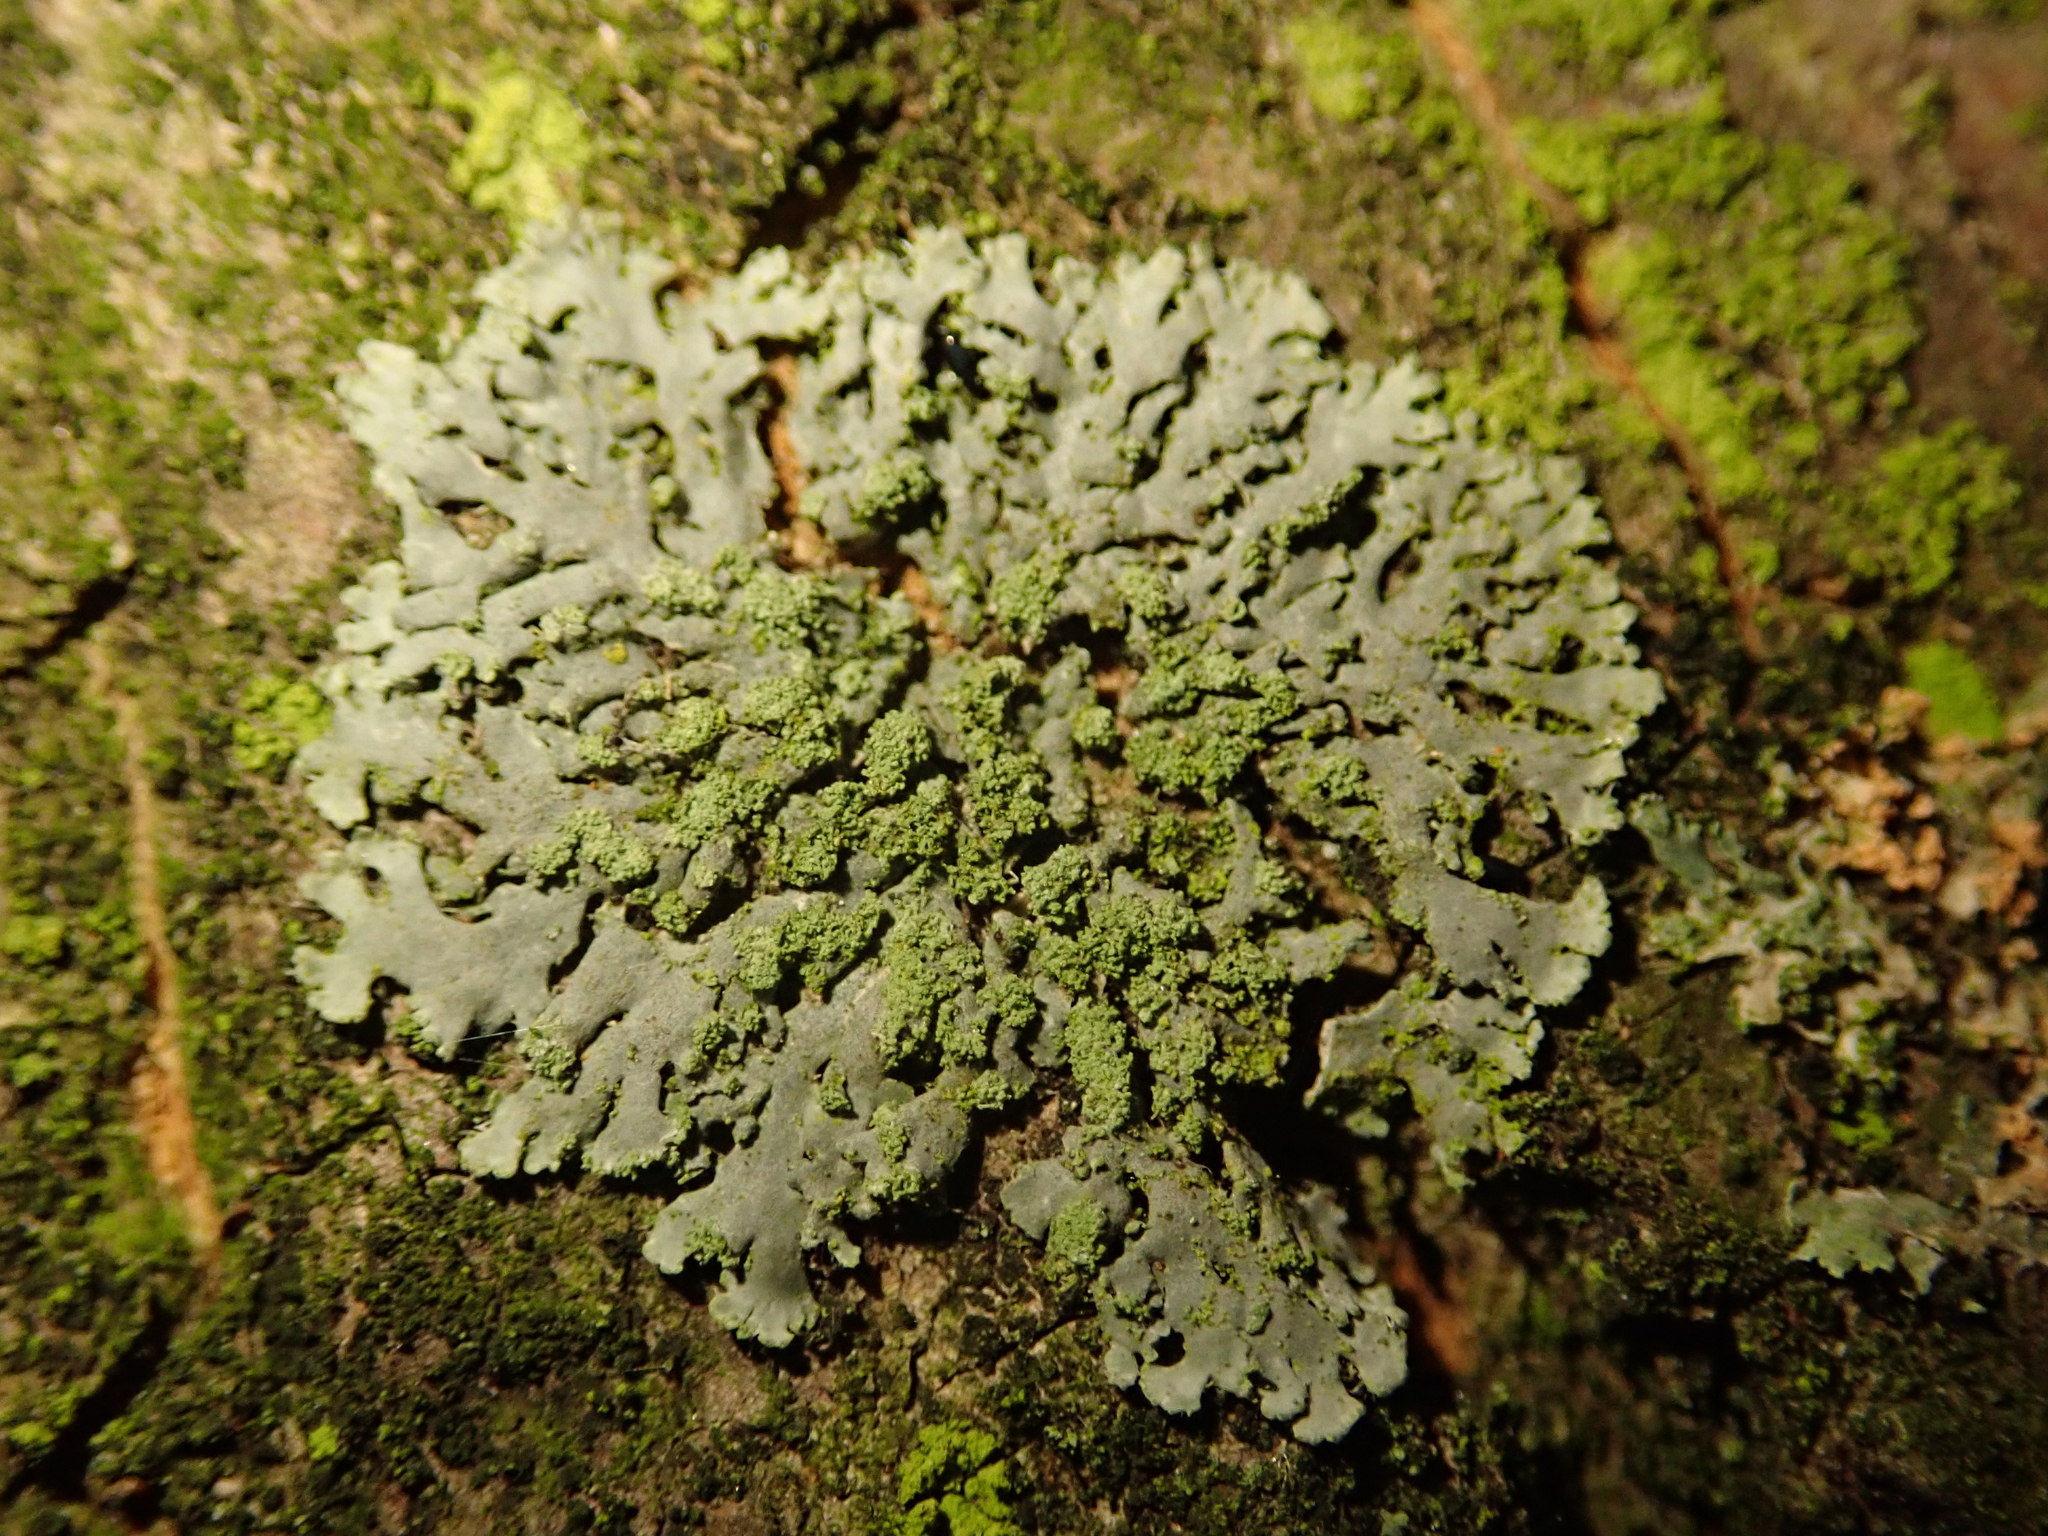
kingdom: Fungi
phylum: Ascomycota
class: Lecanoromycetes
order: Caliciales
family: Physciaceae
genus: Phaeophyscia
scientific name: Phaeophyscia orbicularis
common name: Mealy shadow lichen
